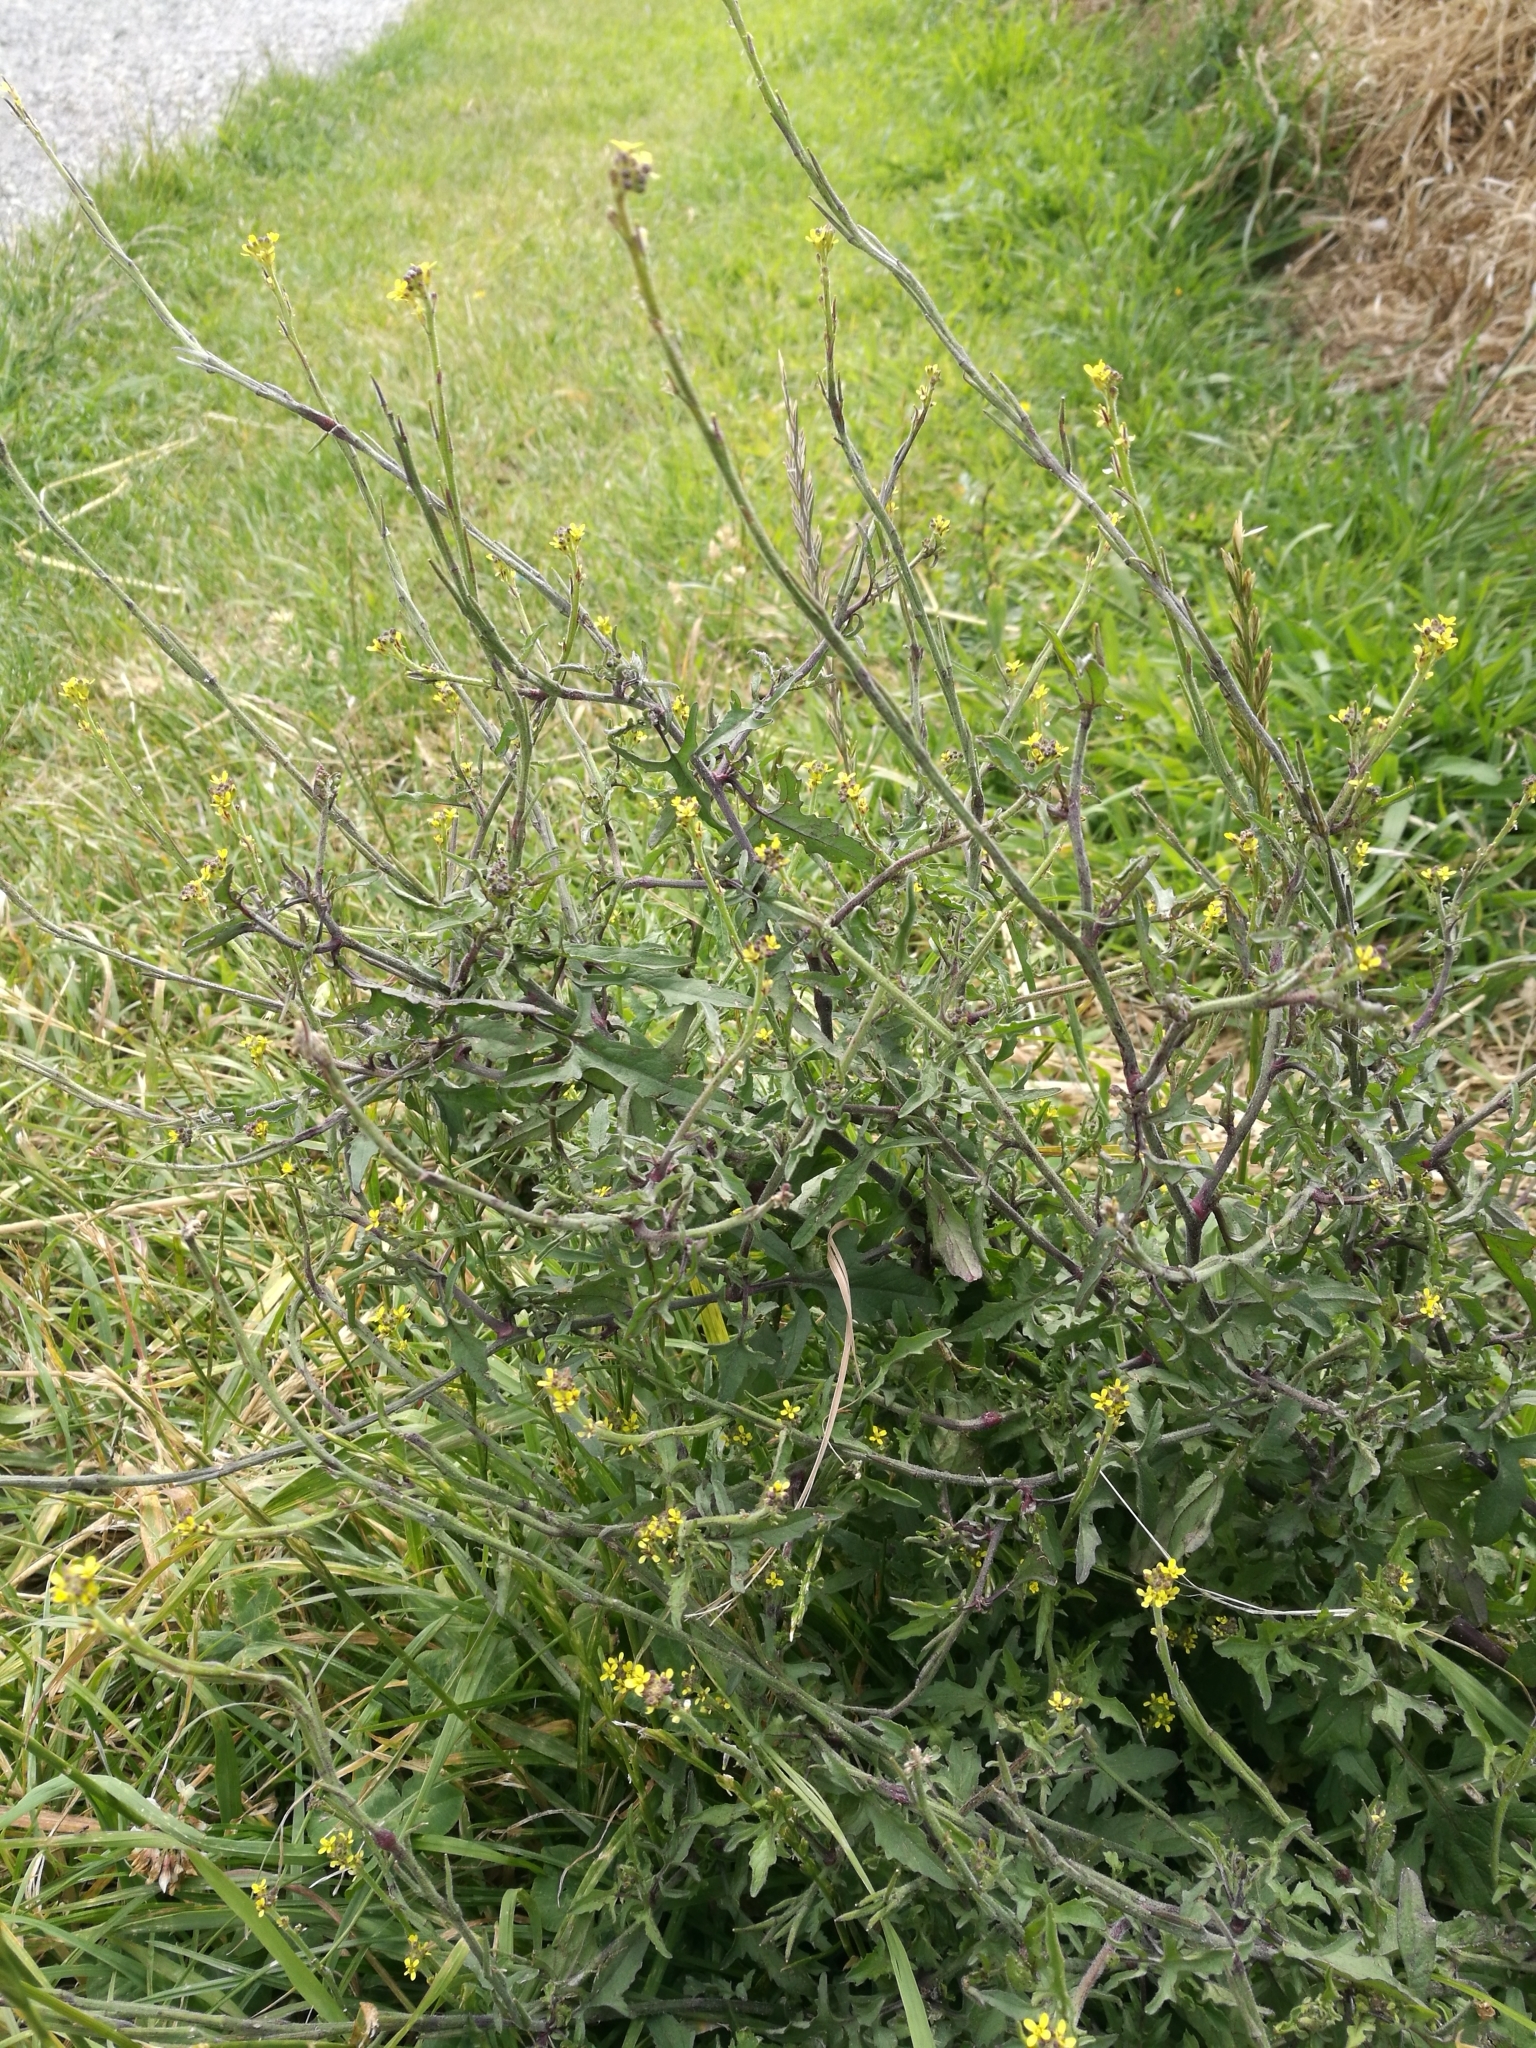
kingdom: Plantae
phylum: Tracheophyta
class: Magnoliopsida
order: Brassicales
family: Brassicaceae
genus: Sisymbrium
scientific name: Sisymbrium officinale
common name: Hedge mustard
